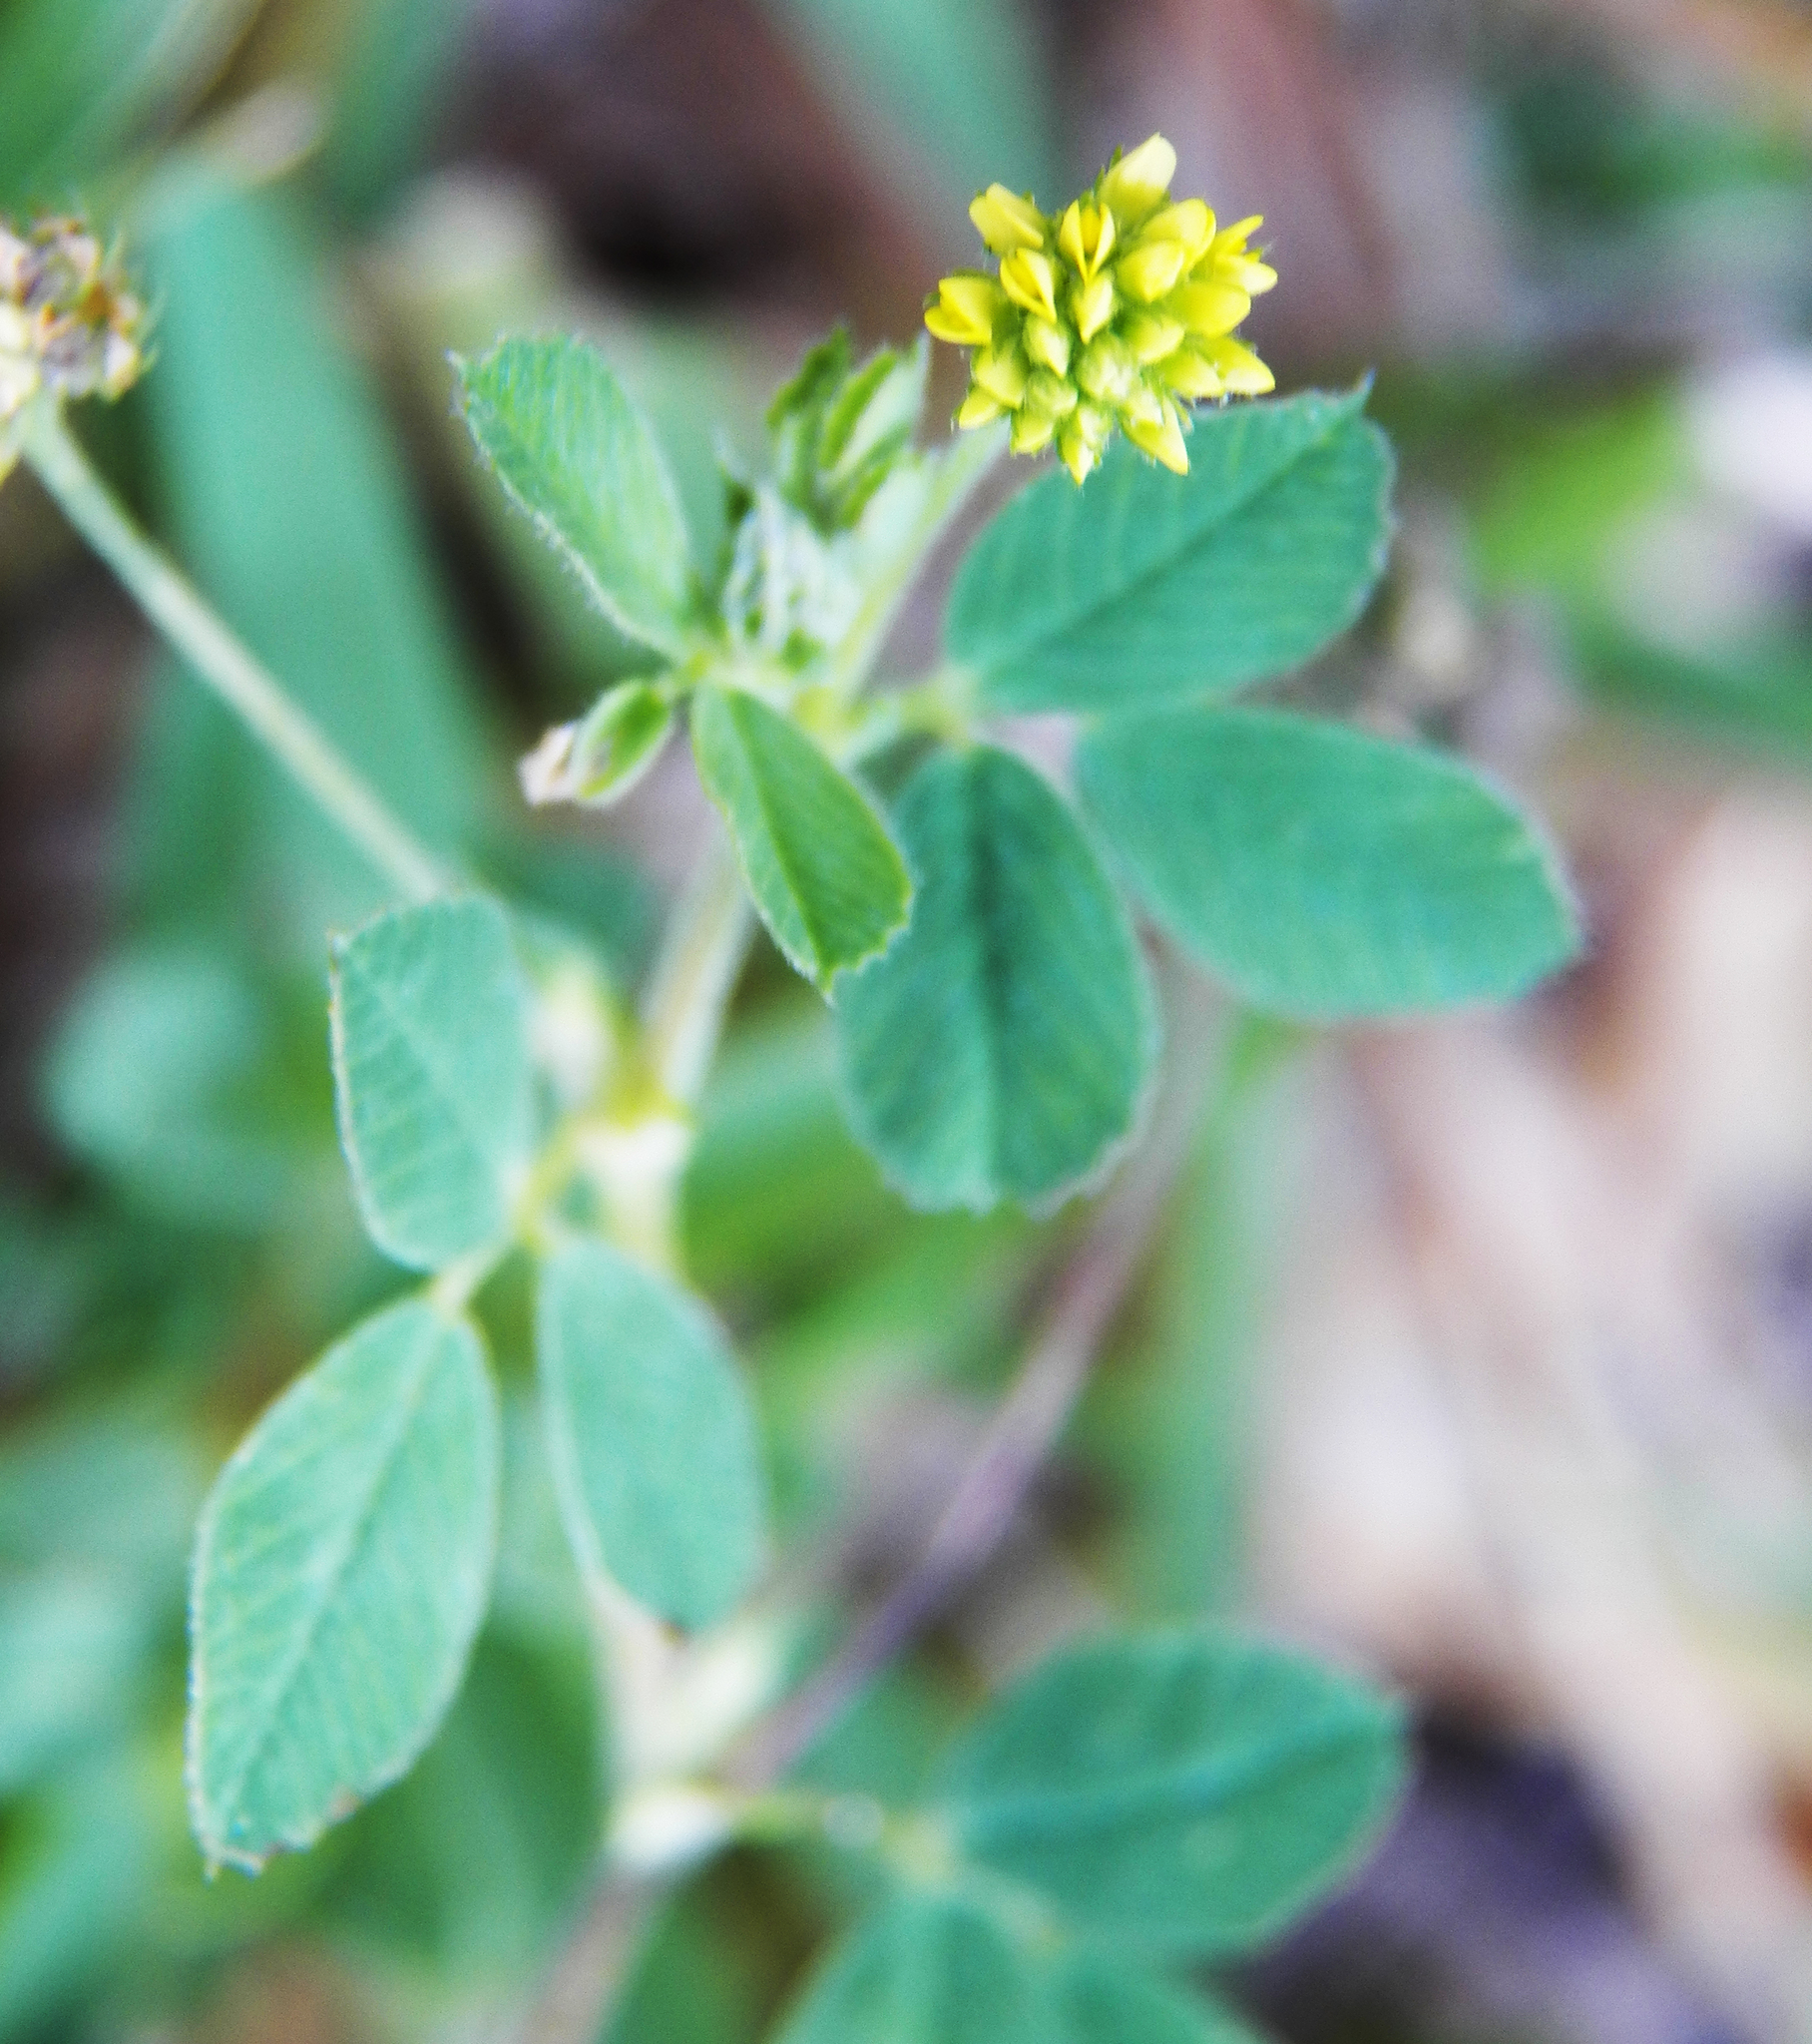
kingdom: Plantae
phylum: Tracheophyta
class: Magnoliopsida
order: Fabales
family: Fabaceae
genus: Medicago
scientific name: Medicago lupulina
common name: Black medick
